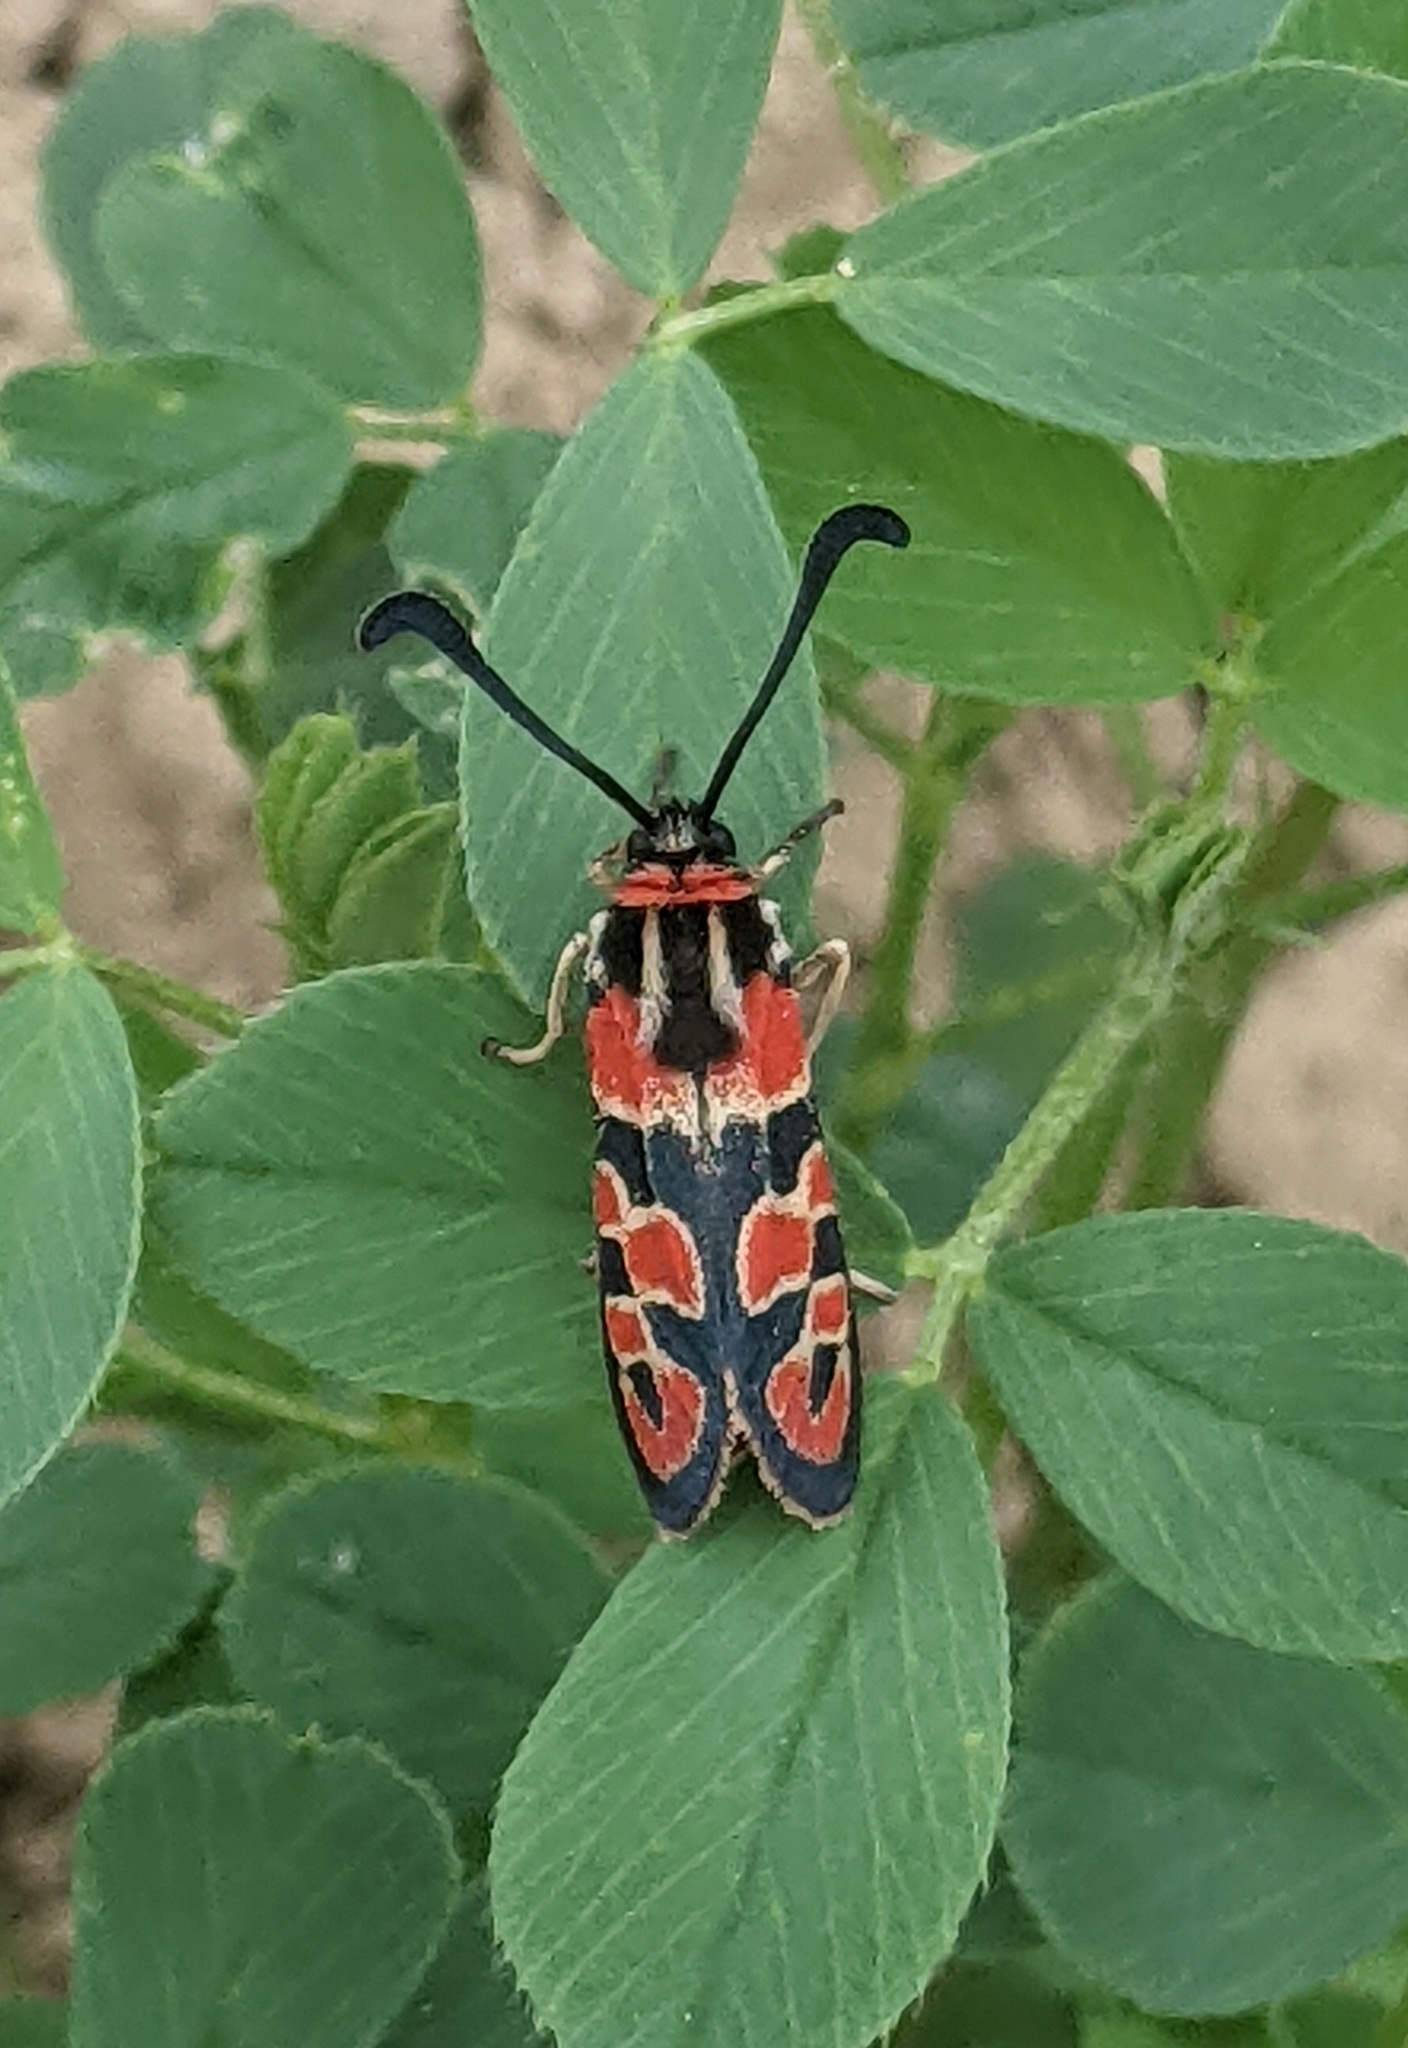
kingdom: Animalia
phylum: Arthropoda
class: Insecta
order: Lepidoptera
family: Zygaenidae
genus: Zygaena
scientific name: Zygaena fausta
